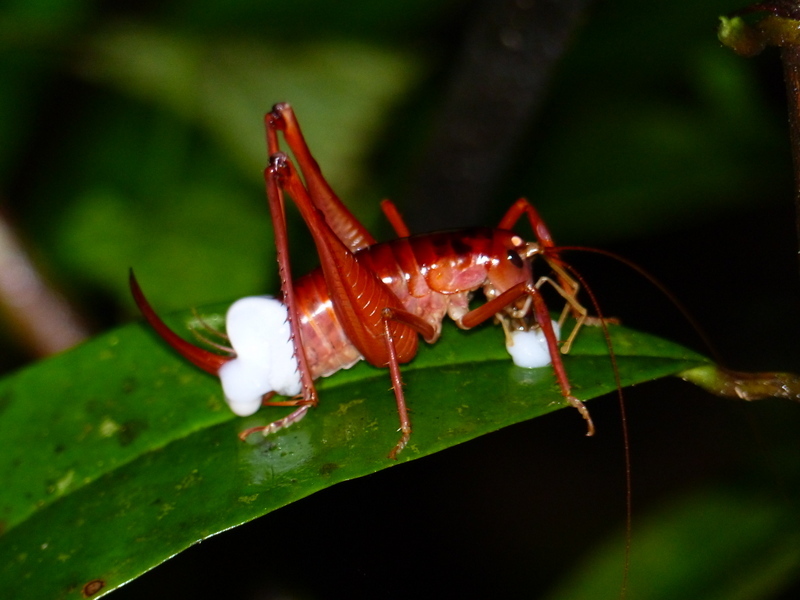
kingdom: Animalia
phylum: Arthropoda
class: Insecta
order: Orthoptera
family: Anostostomatidae
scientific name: Anostostomatidae
